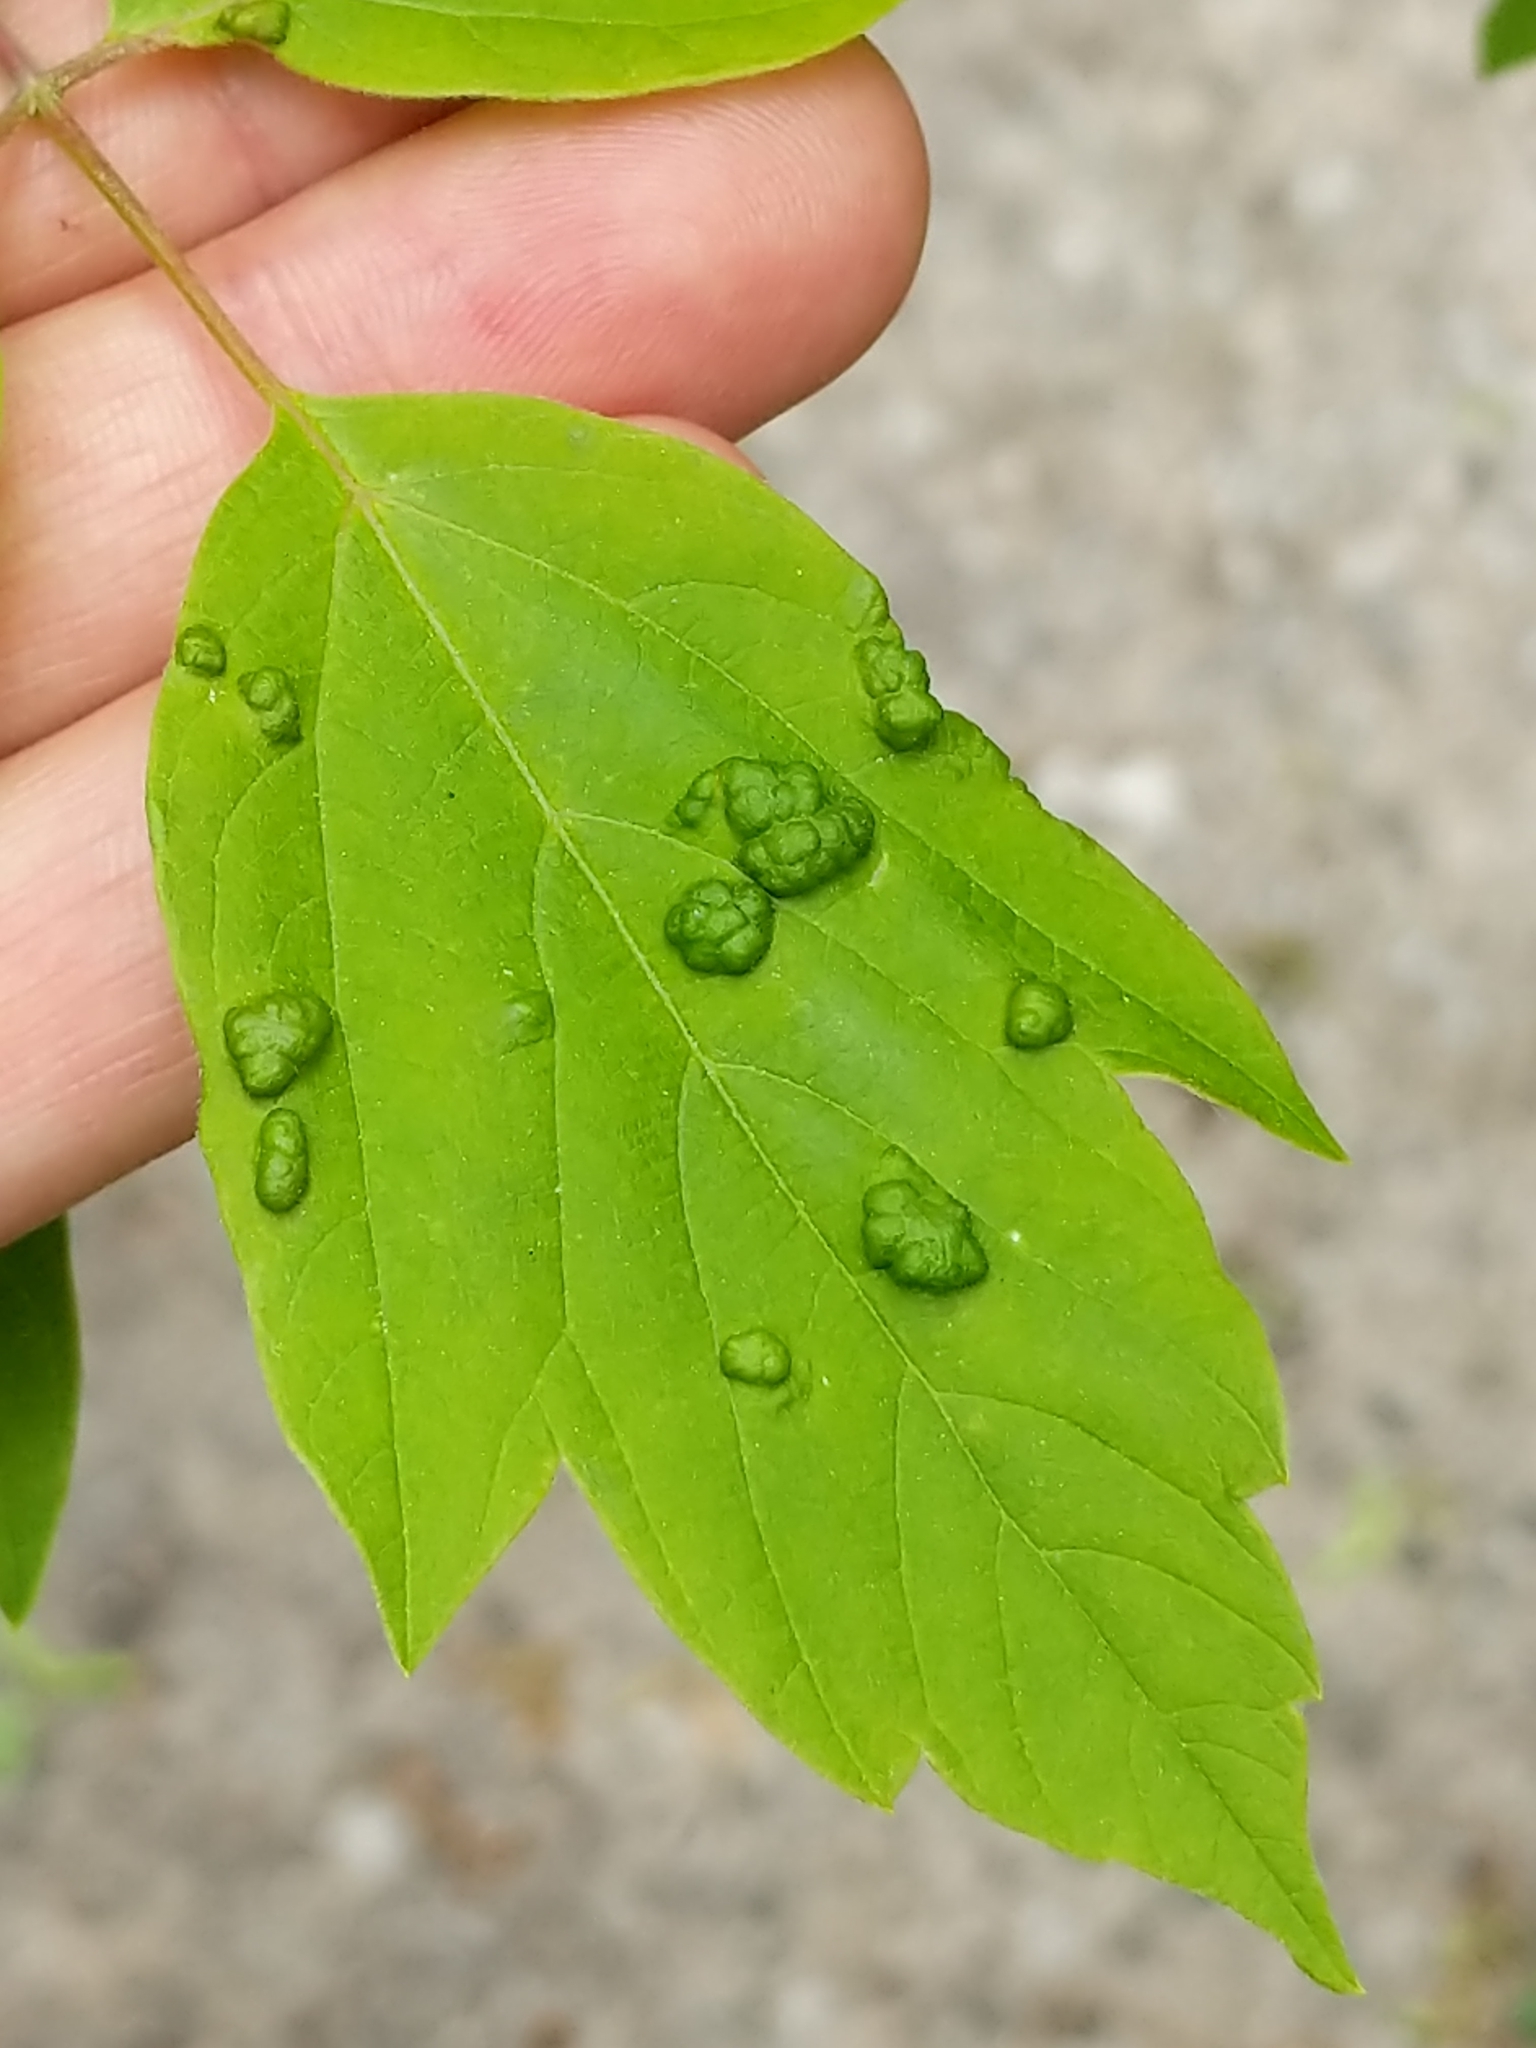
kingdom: Animalia
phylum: Arthropoda
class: Arachnida
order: Trombidiformes
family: Eriophyidae
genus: Aceria
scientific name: Aceria
